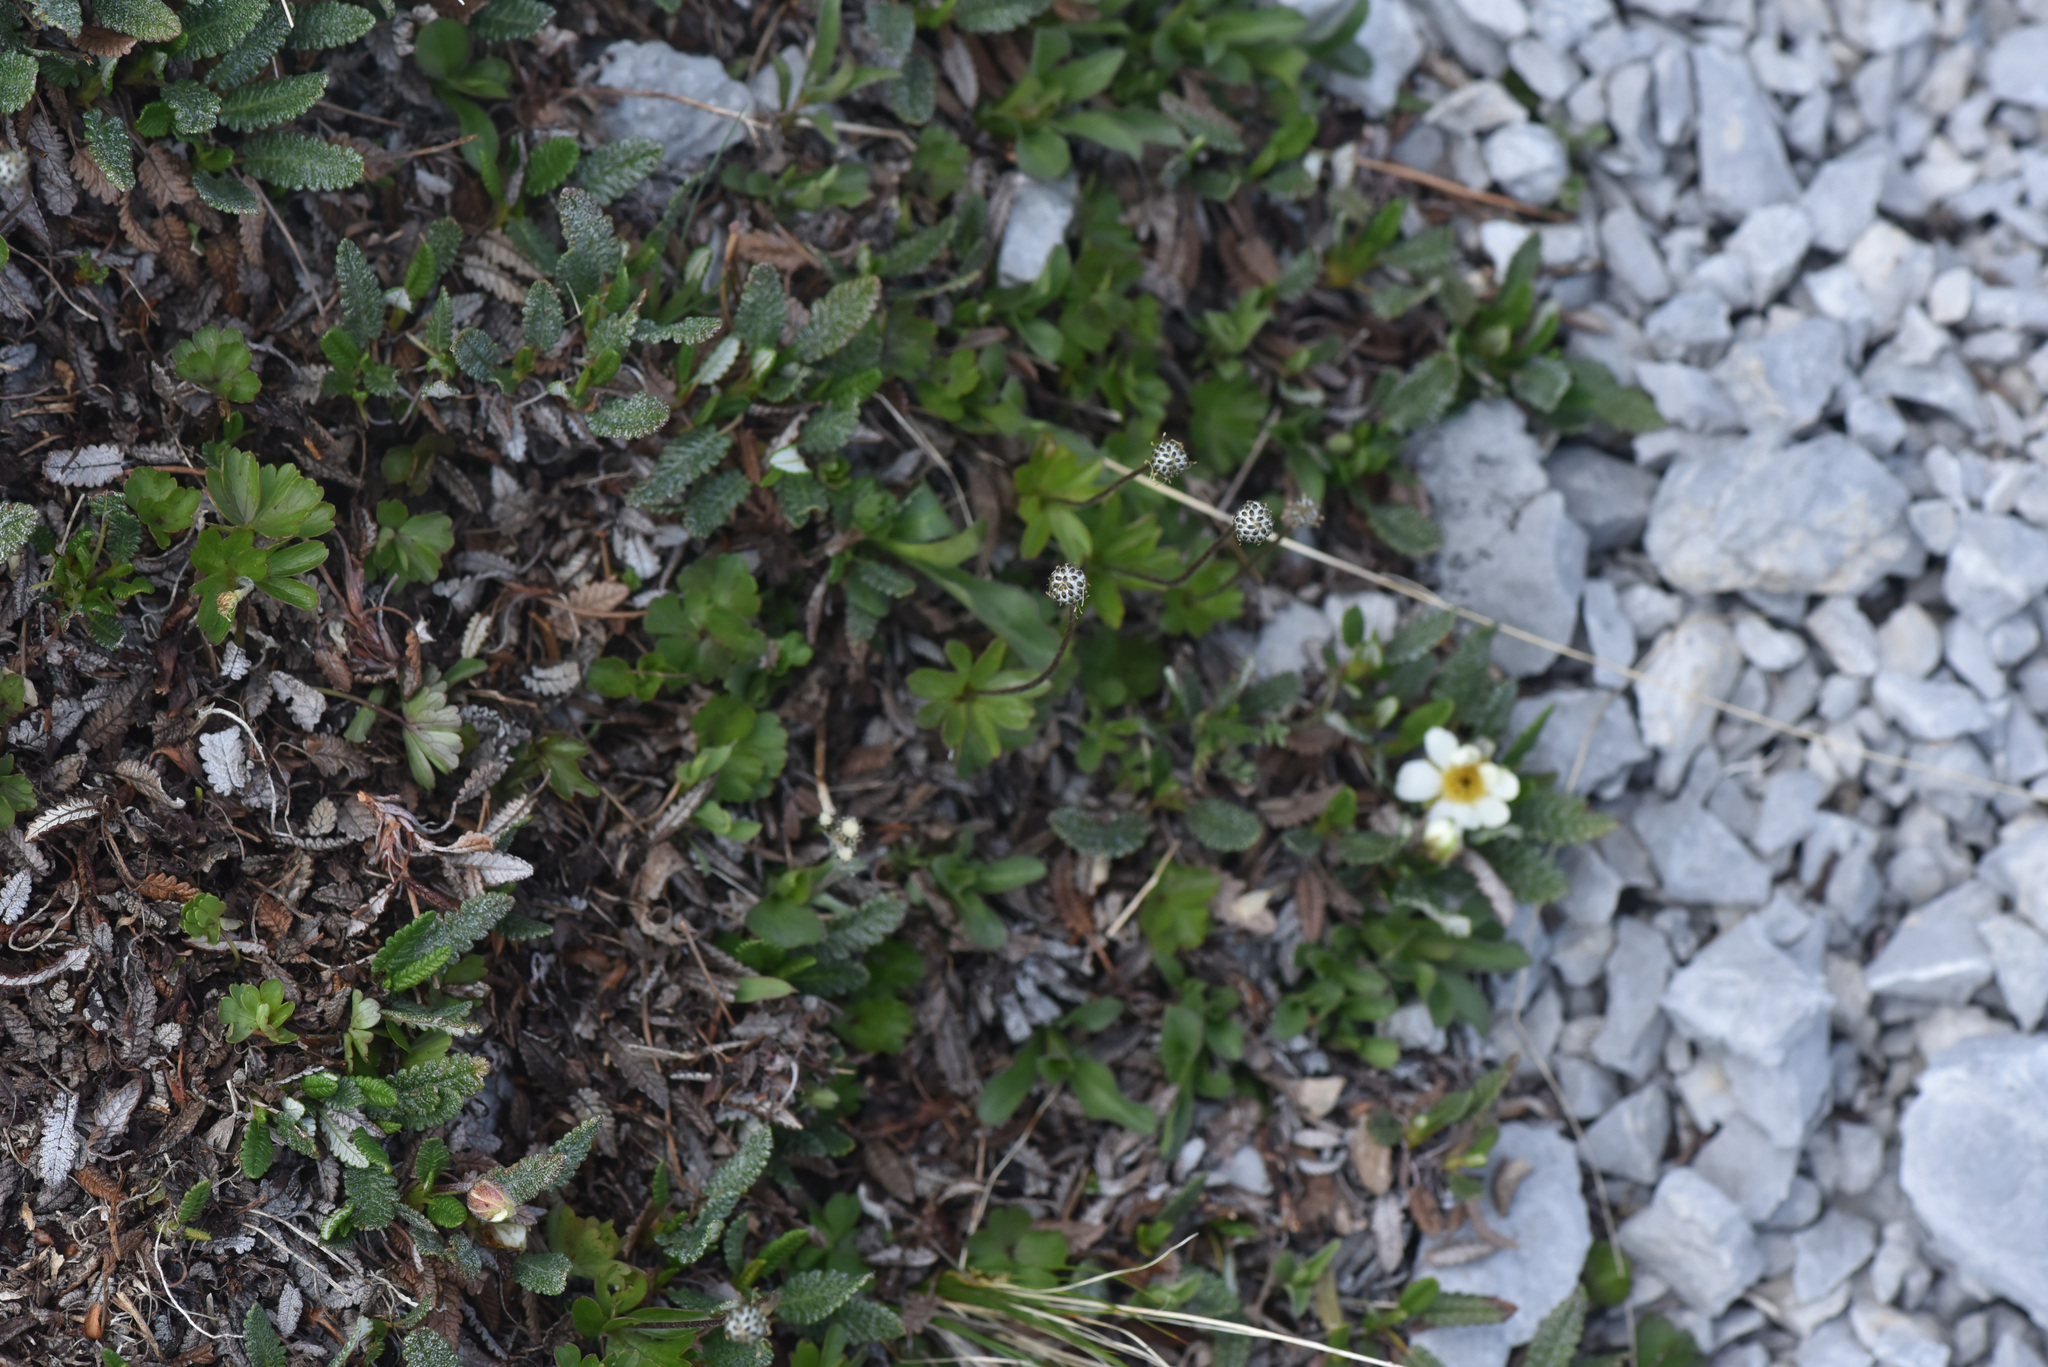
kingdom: Plantae
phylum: Tracheophyta
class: Magnoliopsida
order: Ranunculales
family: Ranunculaceae
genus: Anemone
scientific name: Anemone parviflora
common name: Northern anemone
